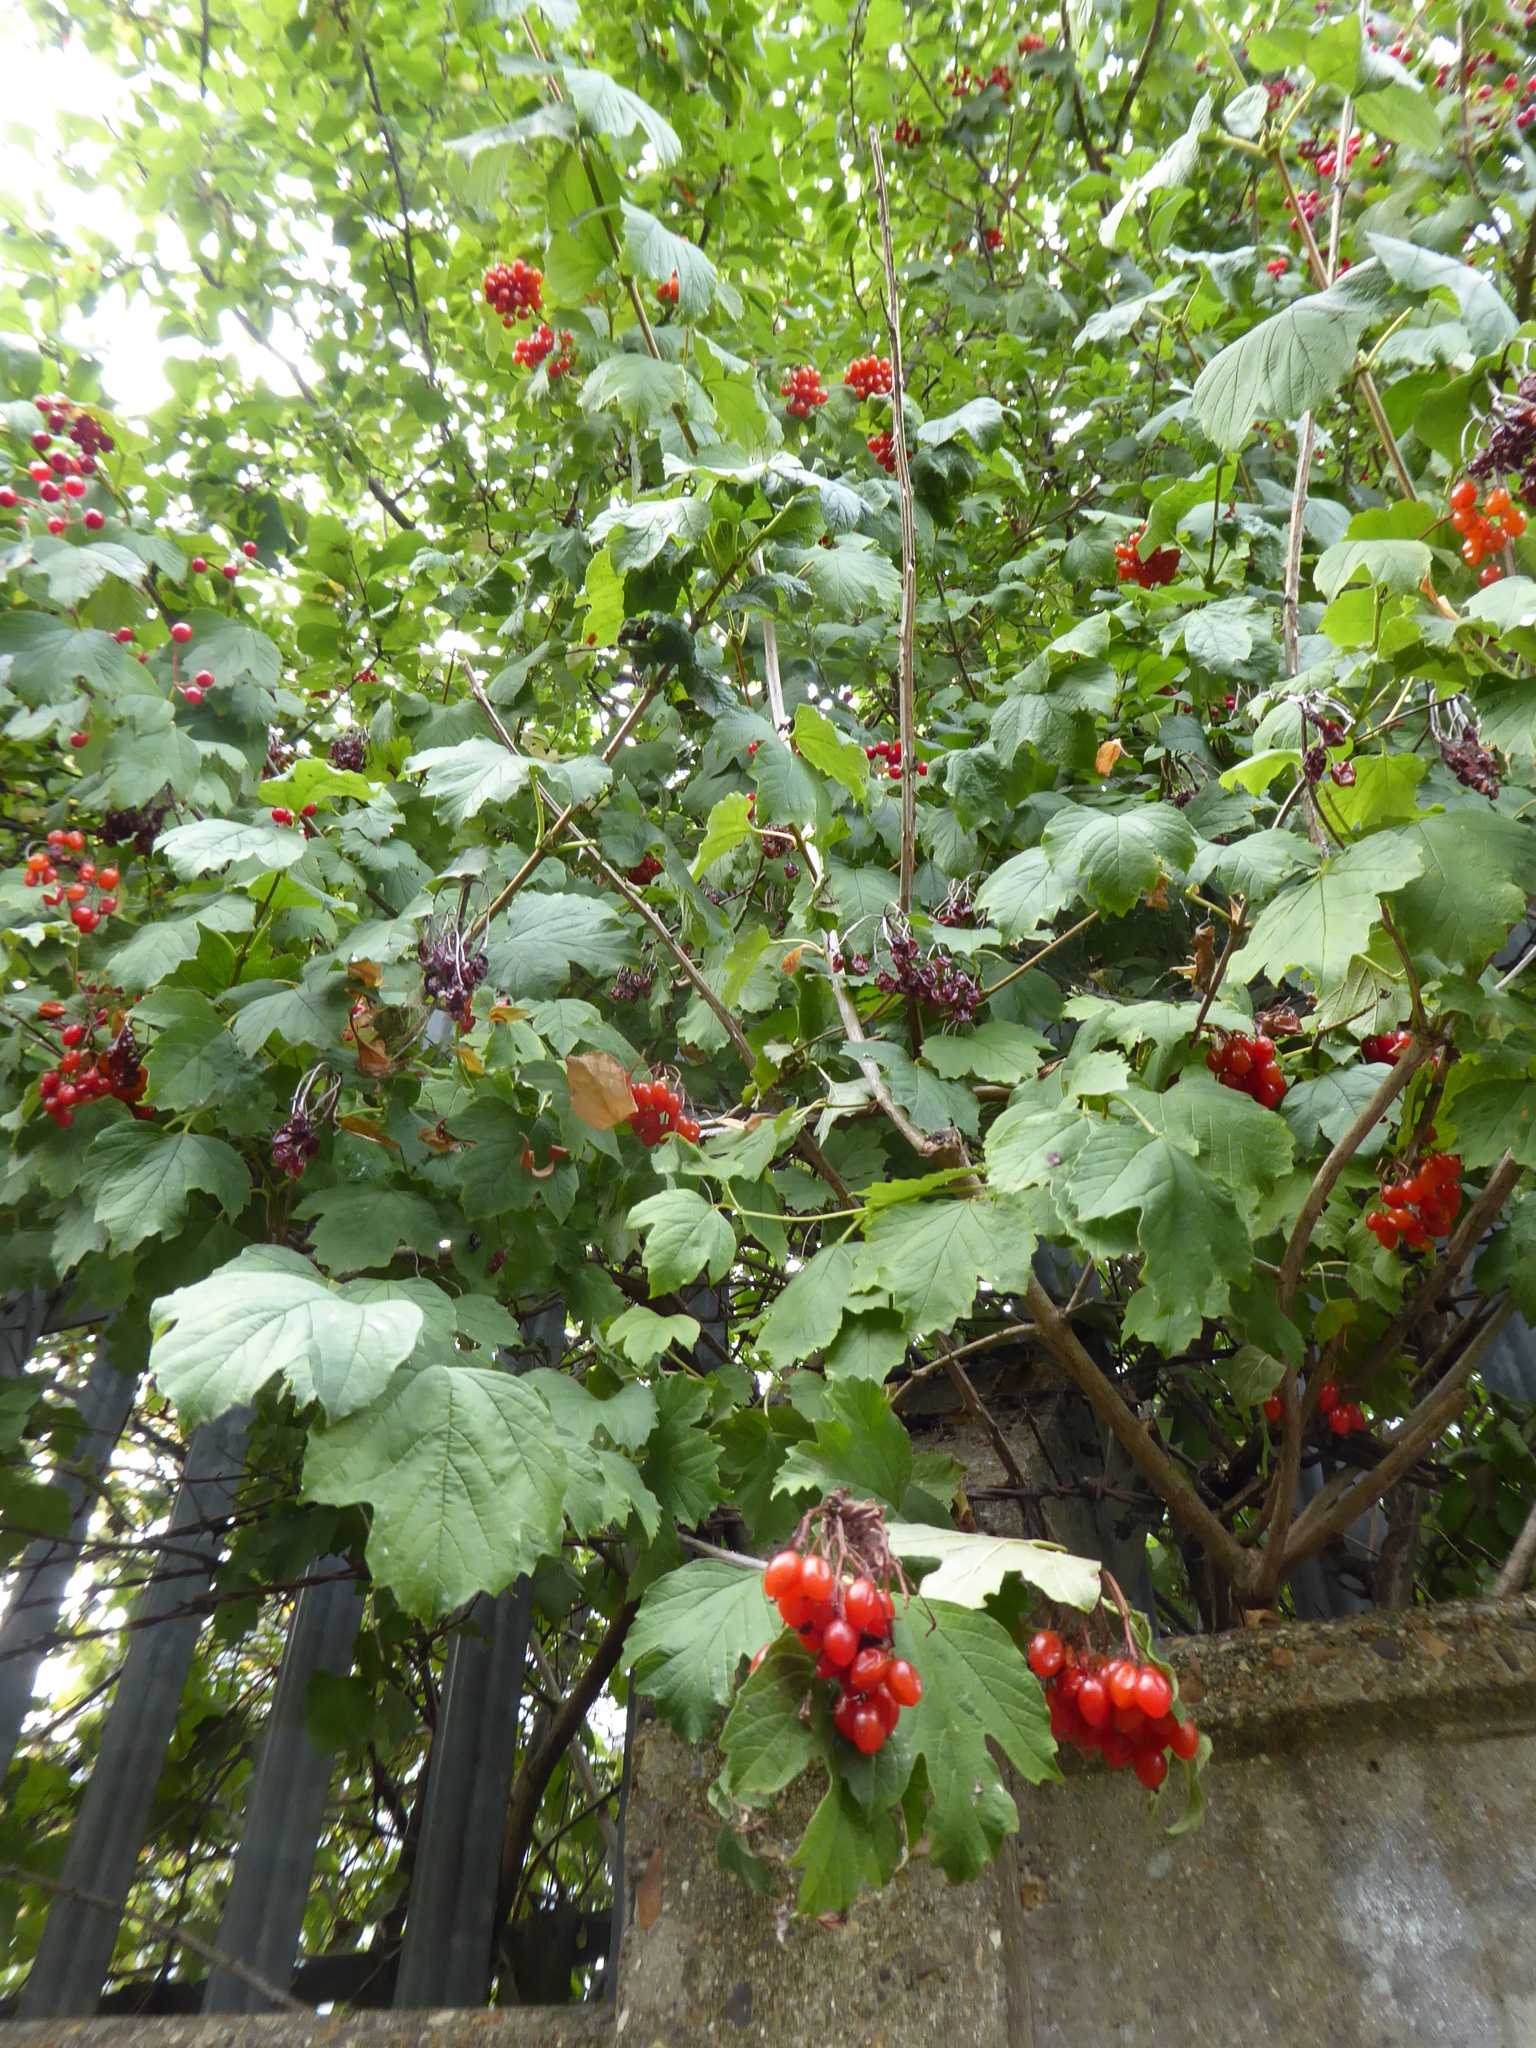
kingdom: Plantae
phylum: Tracheophyta
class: Magnoliopsida
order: Dipsacales
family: Viburnaceae
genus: Viburnum
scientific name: Viburnum opulus
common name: Guelder-rose
